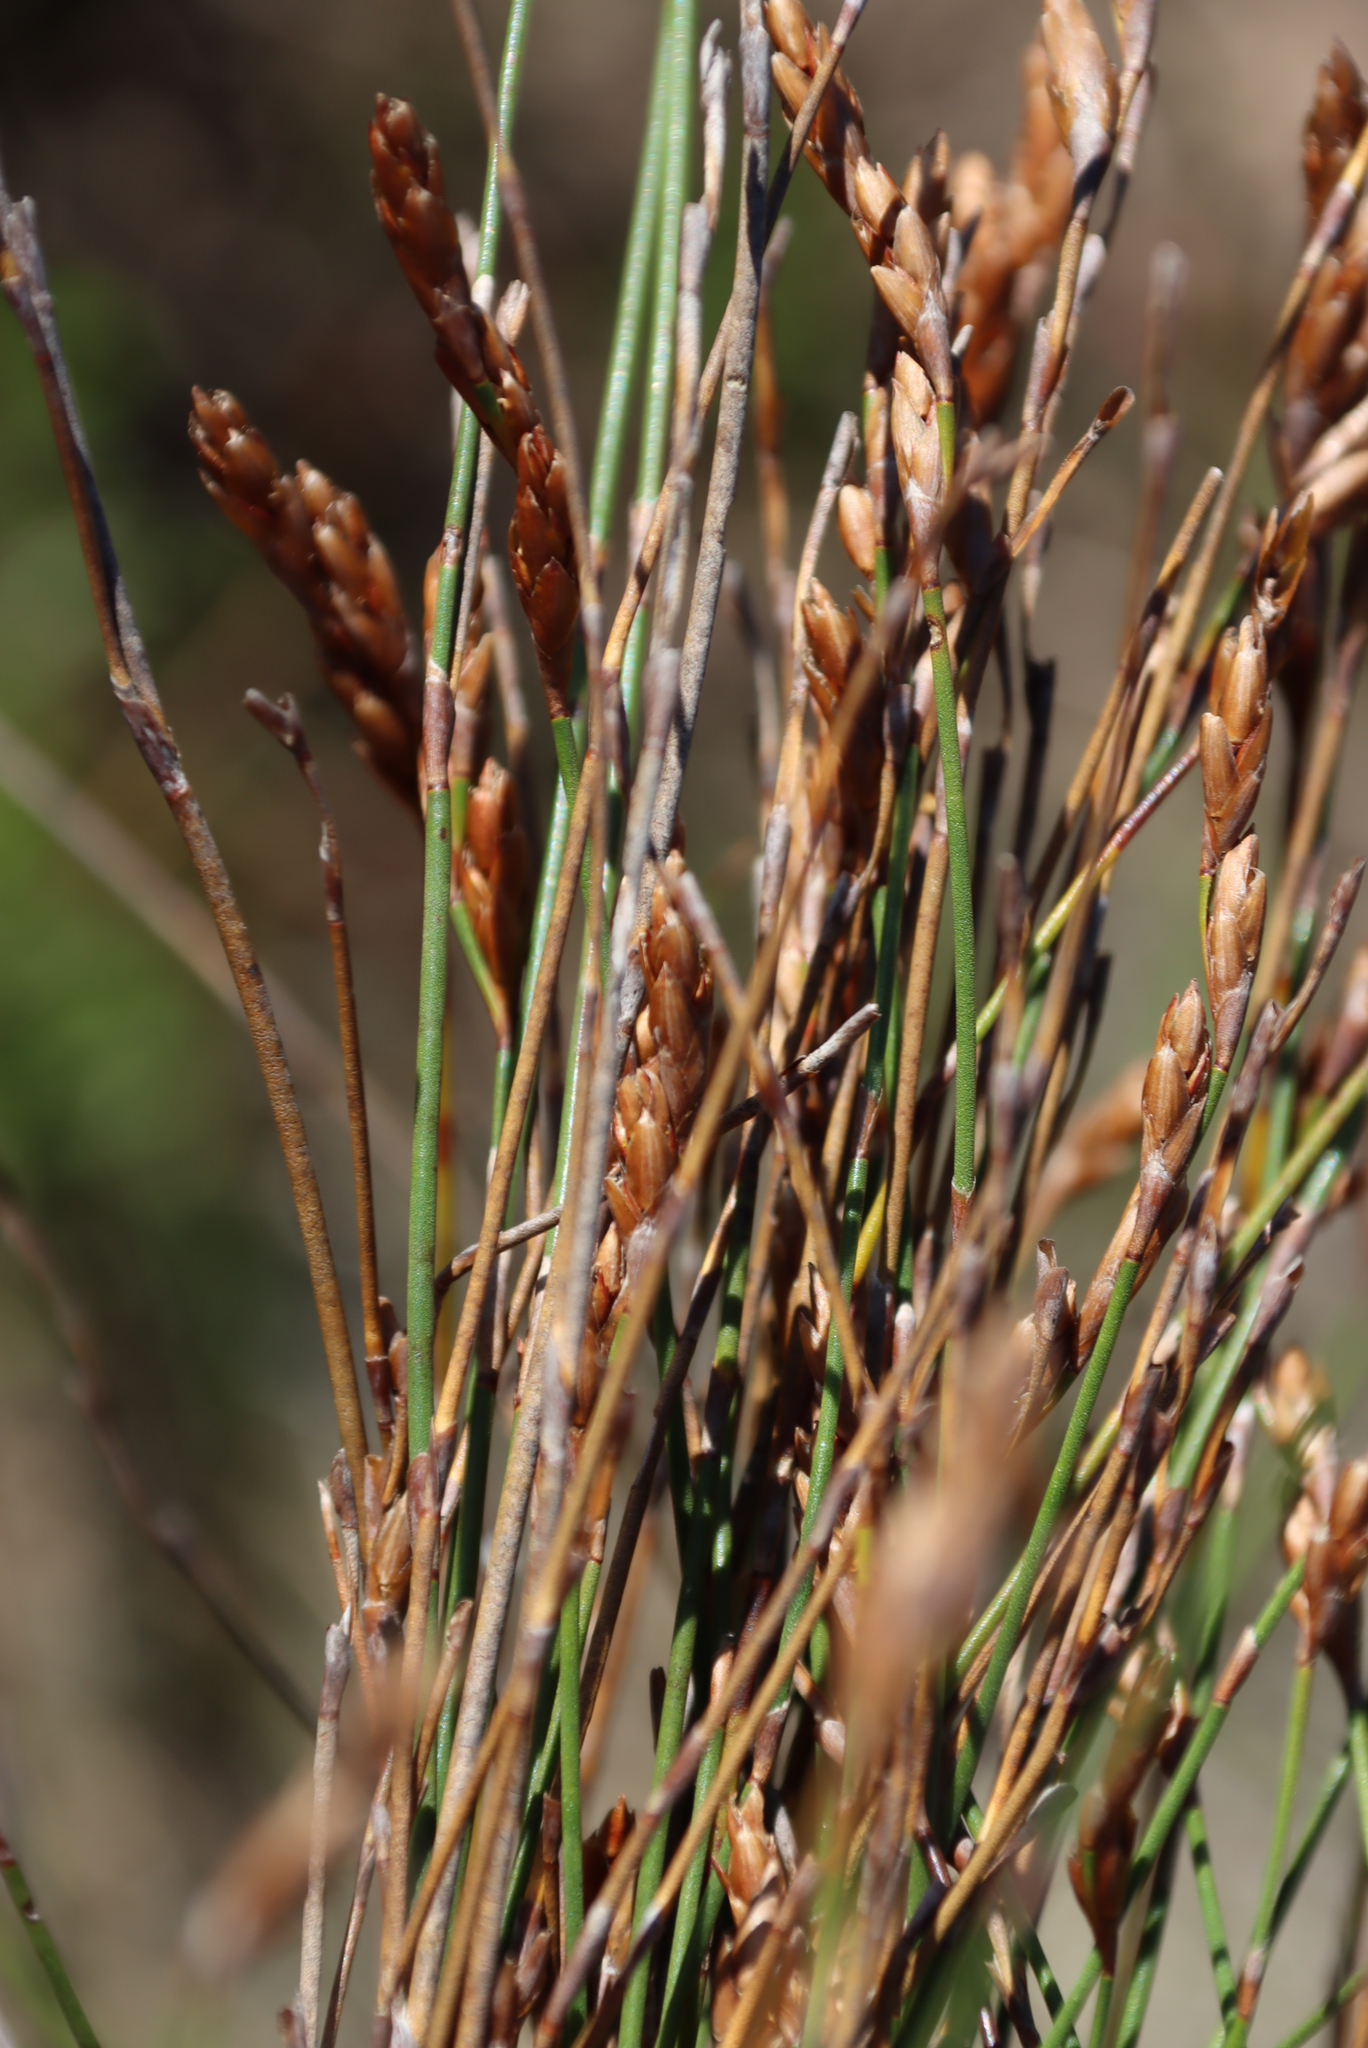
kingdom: Plantae
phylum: Tracheophyta
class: Liliopsida
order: Poales
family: Restionaceae
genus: Restio
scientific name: Restio triticeus
